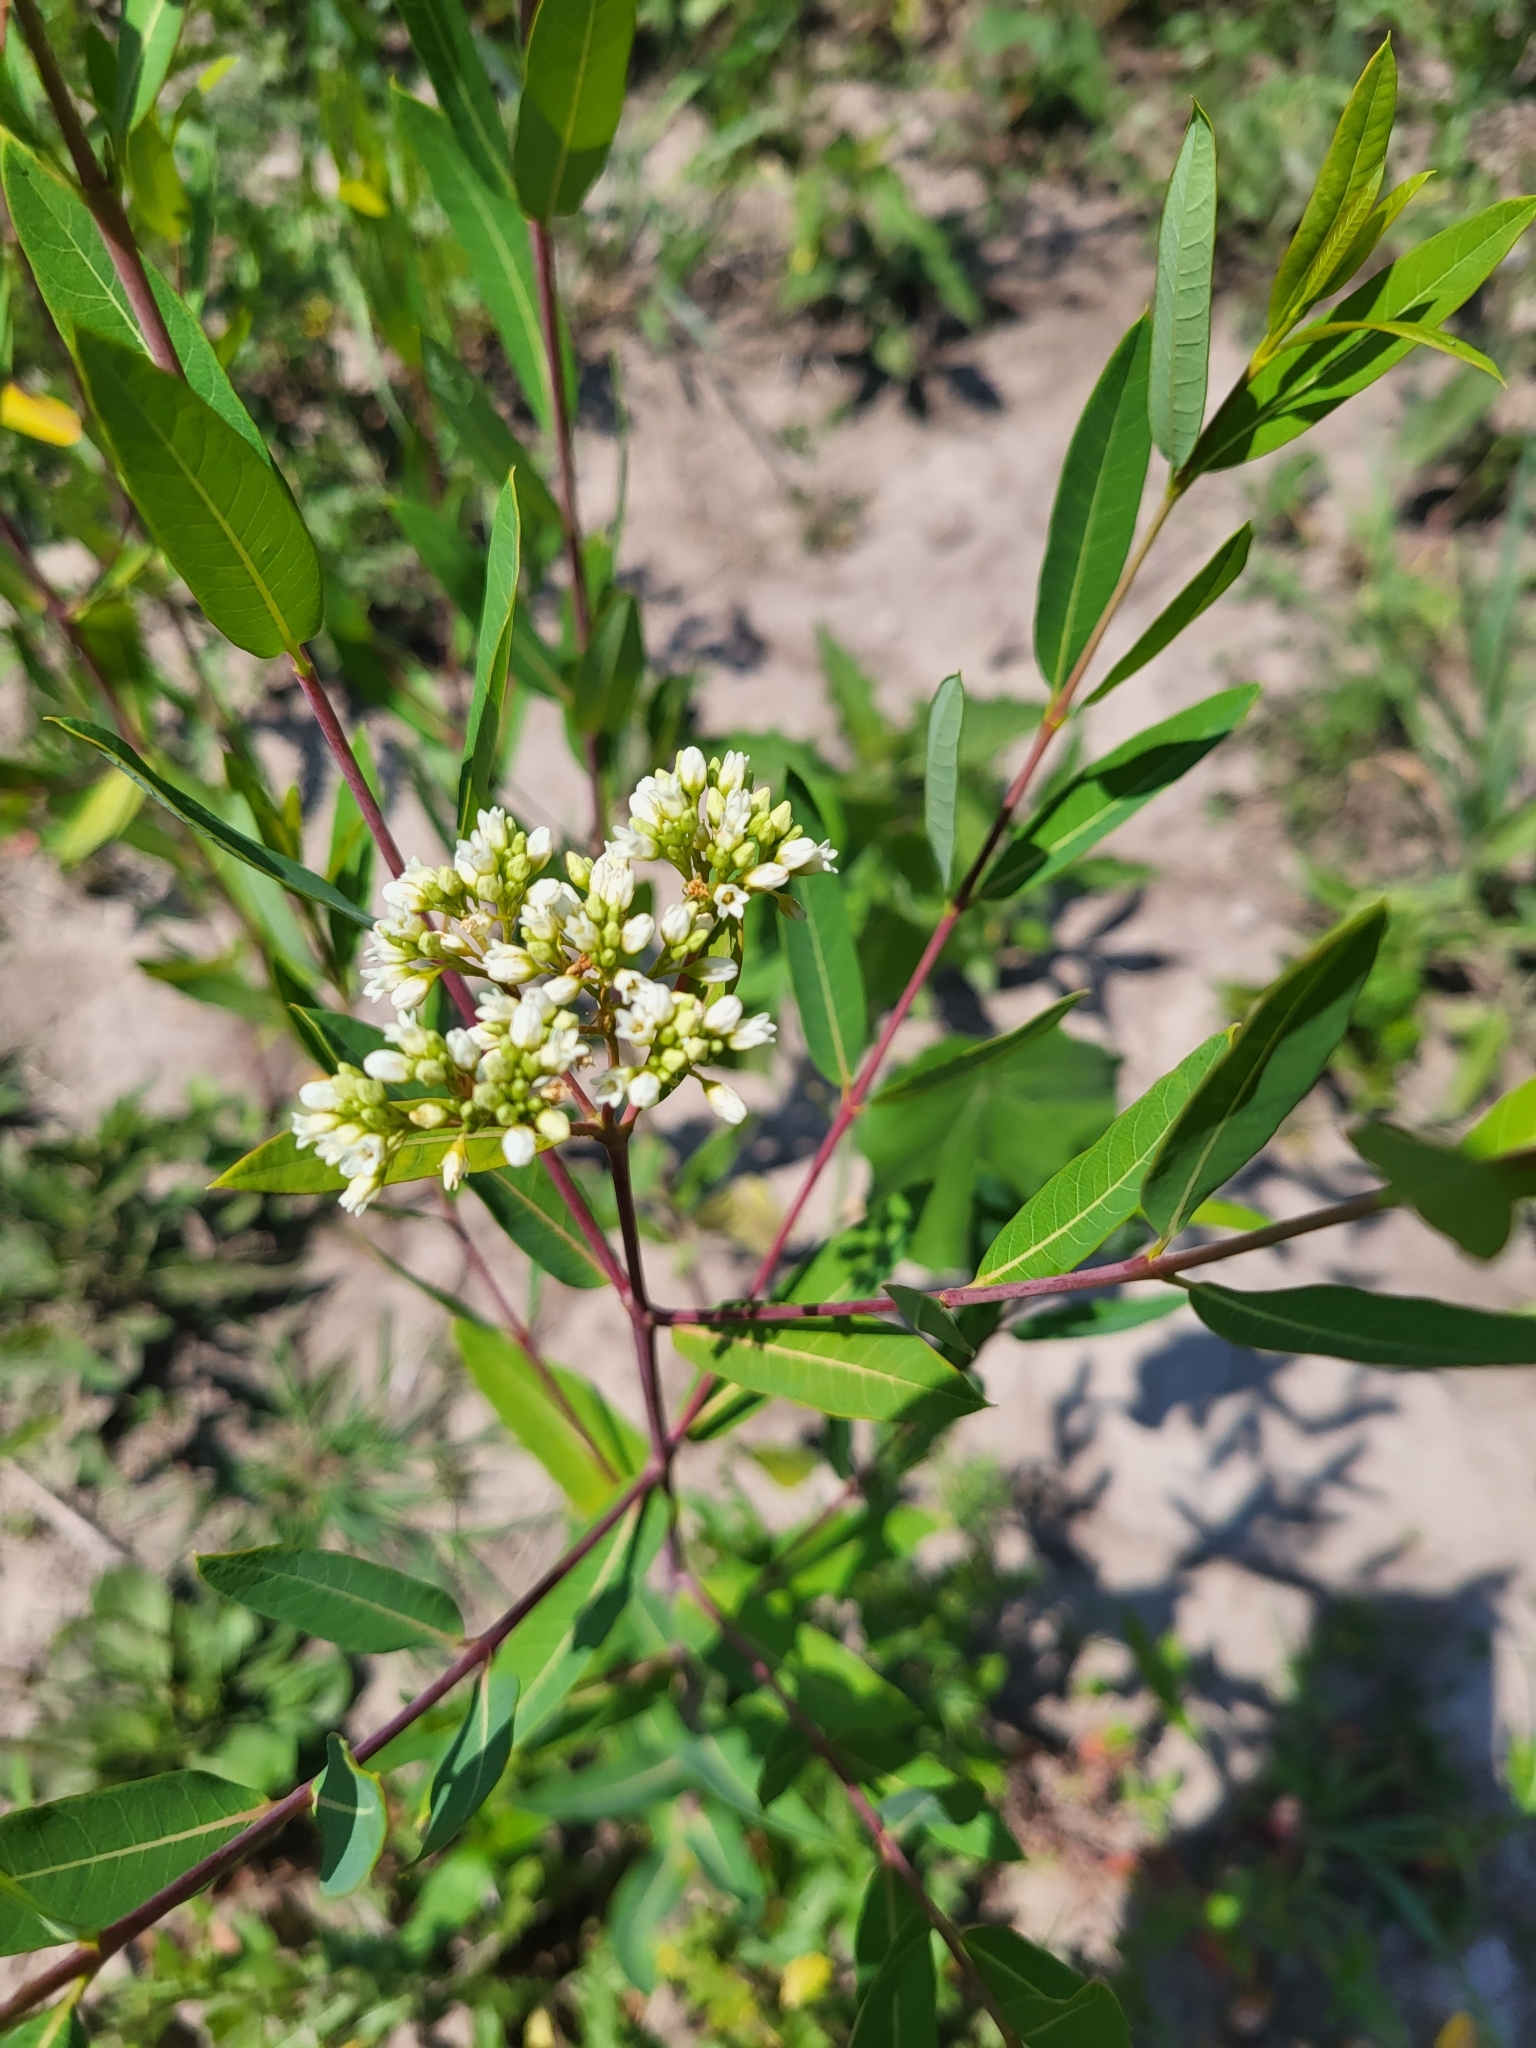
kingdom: Plantae
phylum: Tracheophyta
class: Magnoliopsida
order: Gentianales
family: Apocynaceae
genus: Apocynum
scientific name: Apocynum cannabinum
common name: Hemp dogbane
